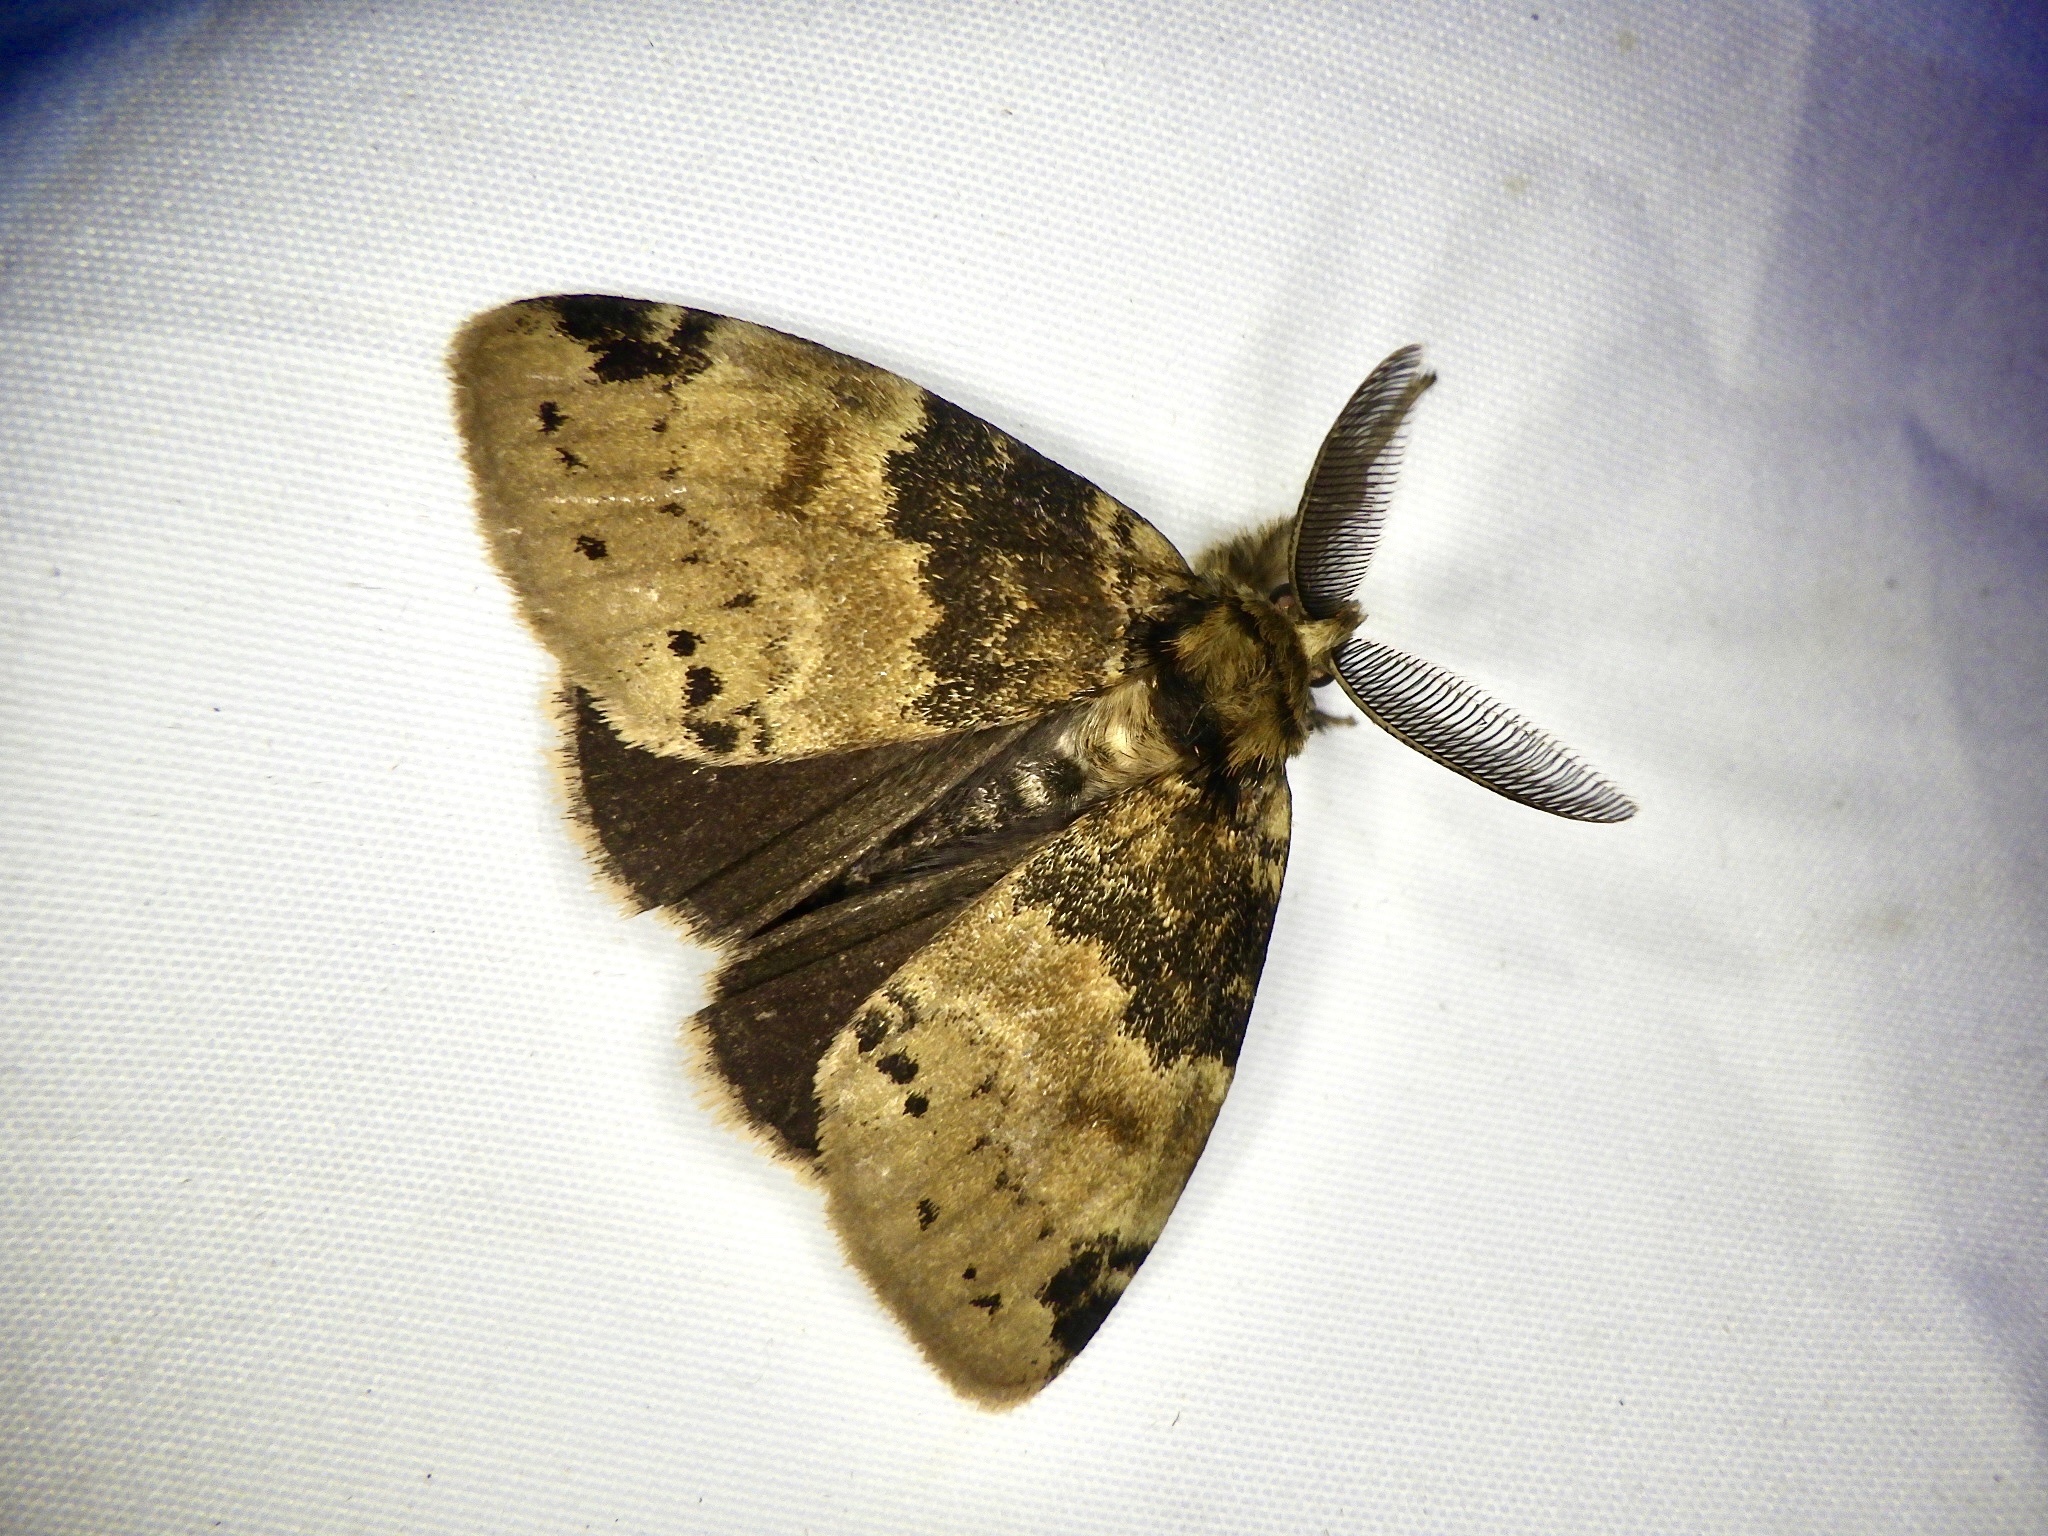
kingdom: Animalia
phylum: Arthropoda
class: Insecta
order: Lepidoptera
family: Erebidae
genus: Ilema
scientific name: Ilema eurydice
